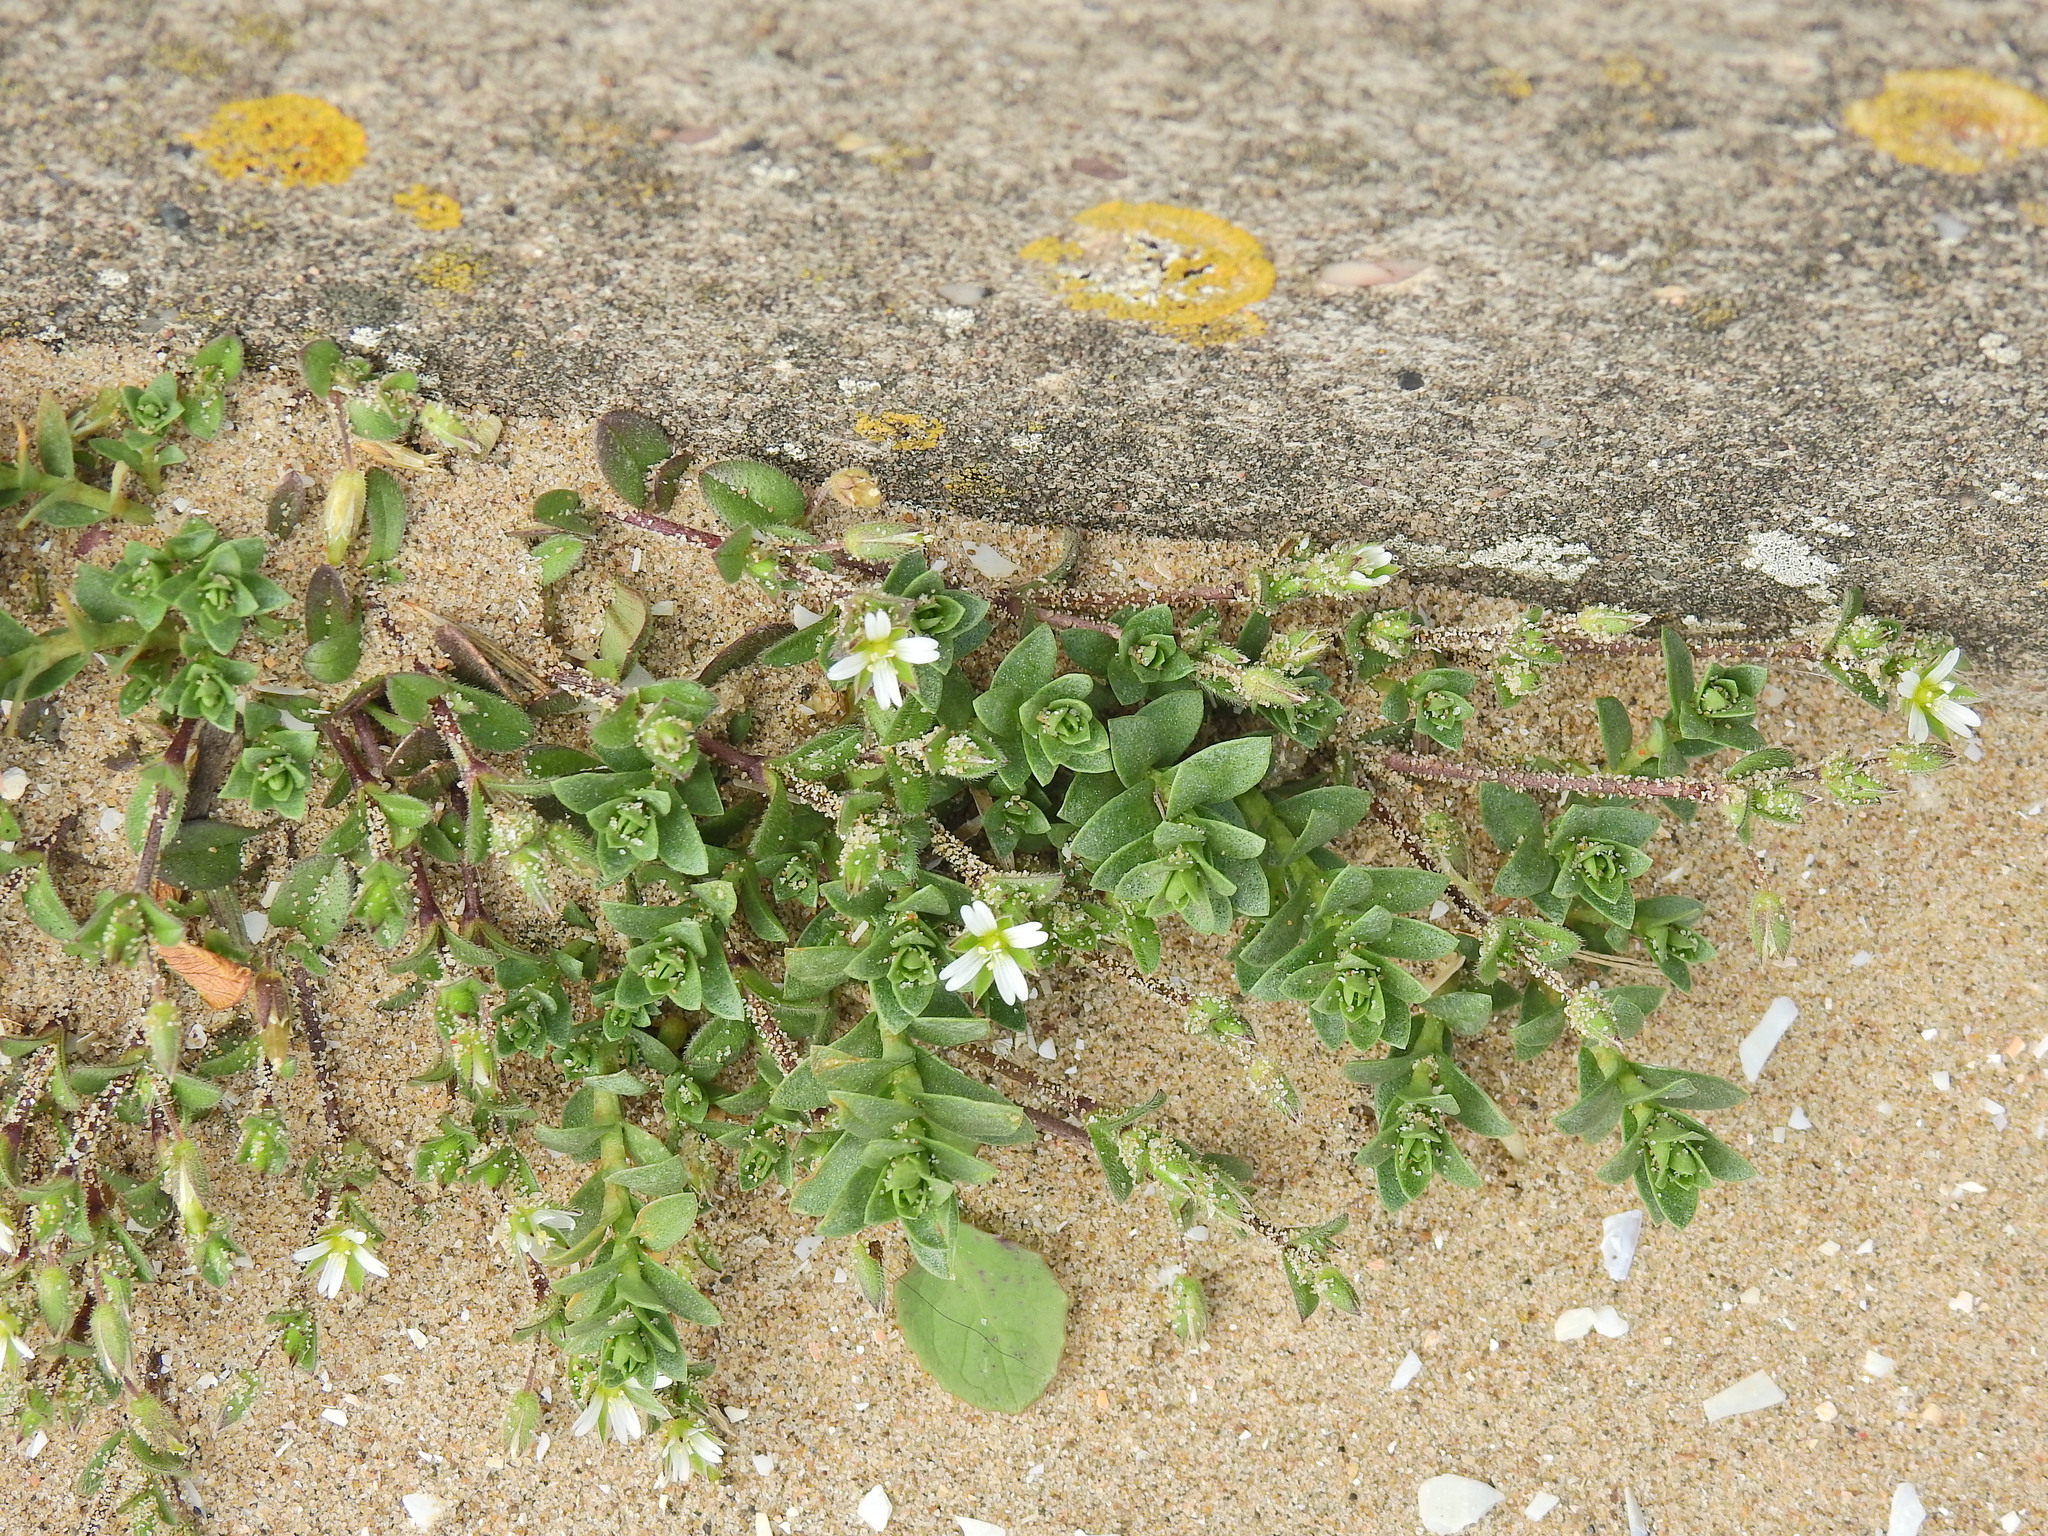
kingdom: Plantae
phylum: Tracheophyta
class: Magnoliopsida
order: Caryophyllales
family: Caryophyllaceae
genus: Cerastium
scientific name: Cerastium diffusum
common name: Fourstamen chickweed
